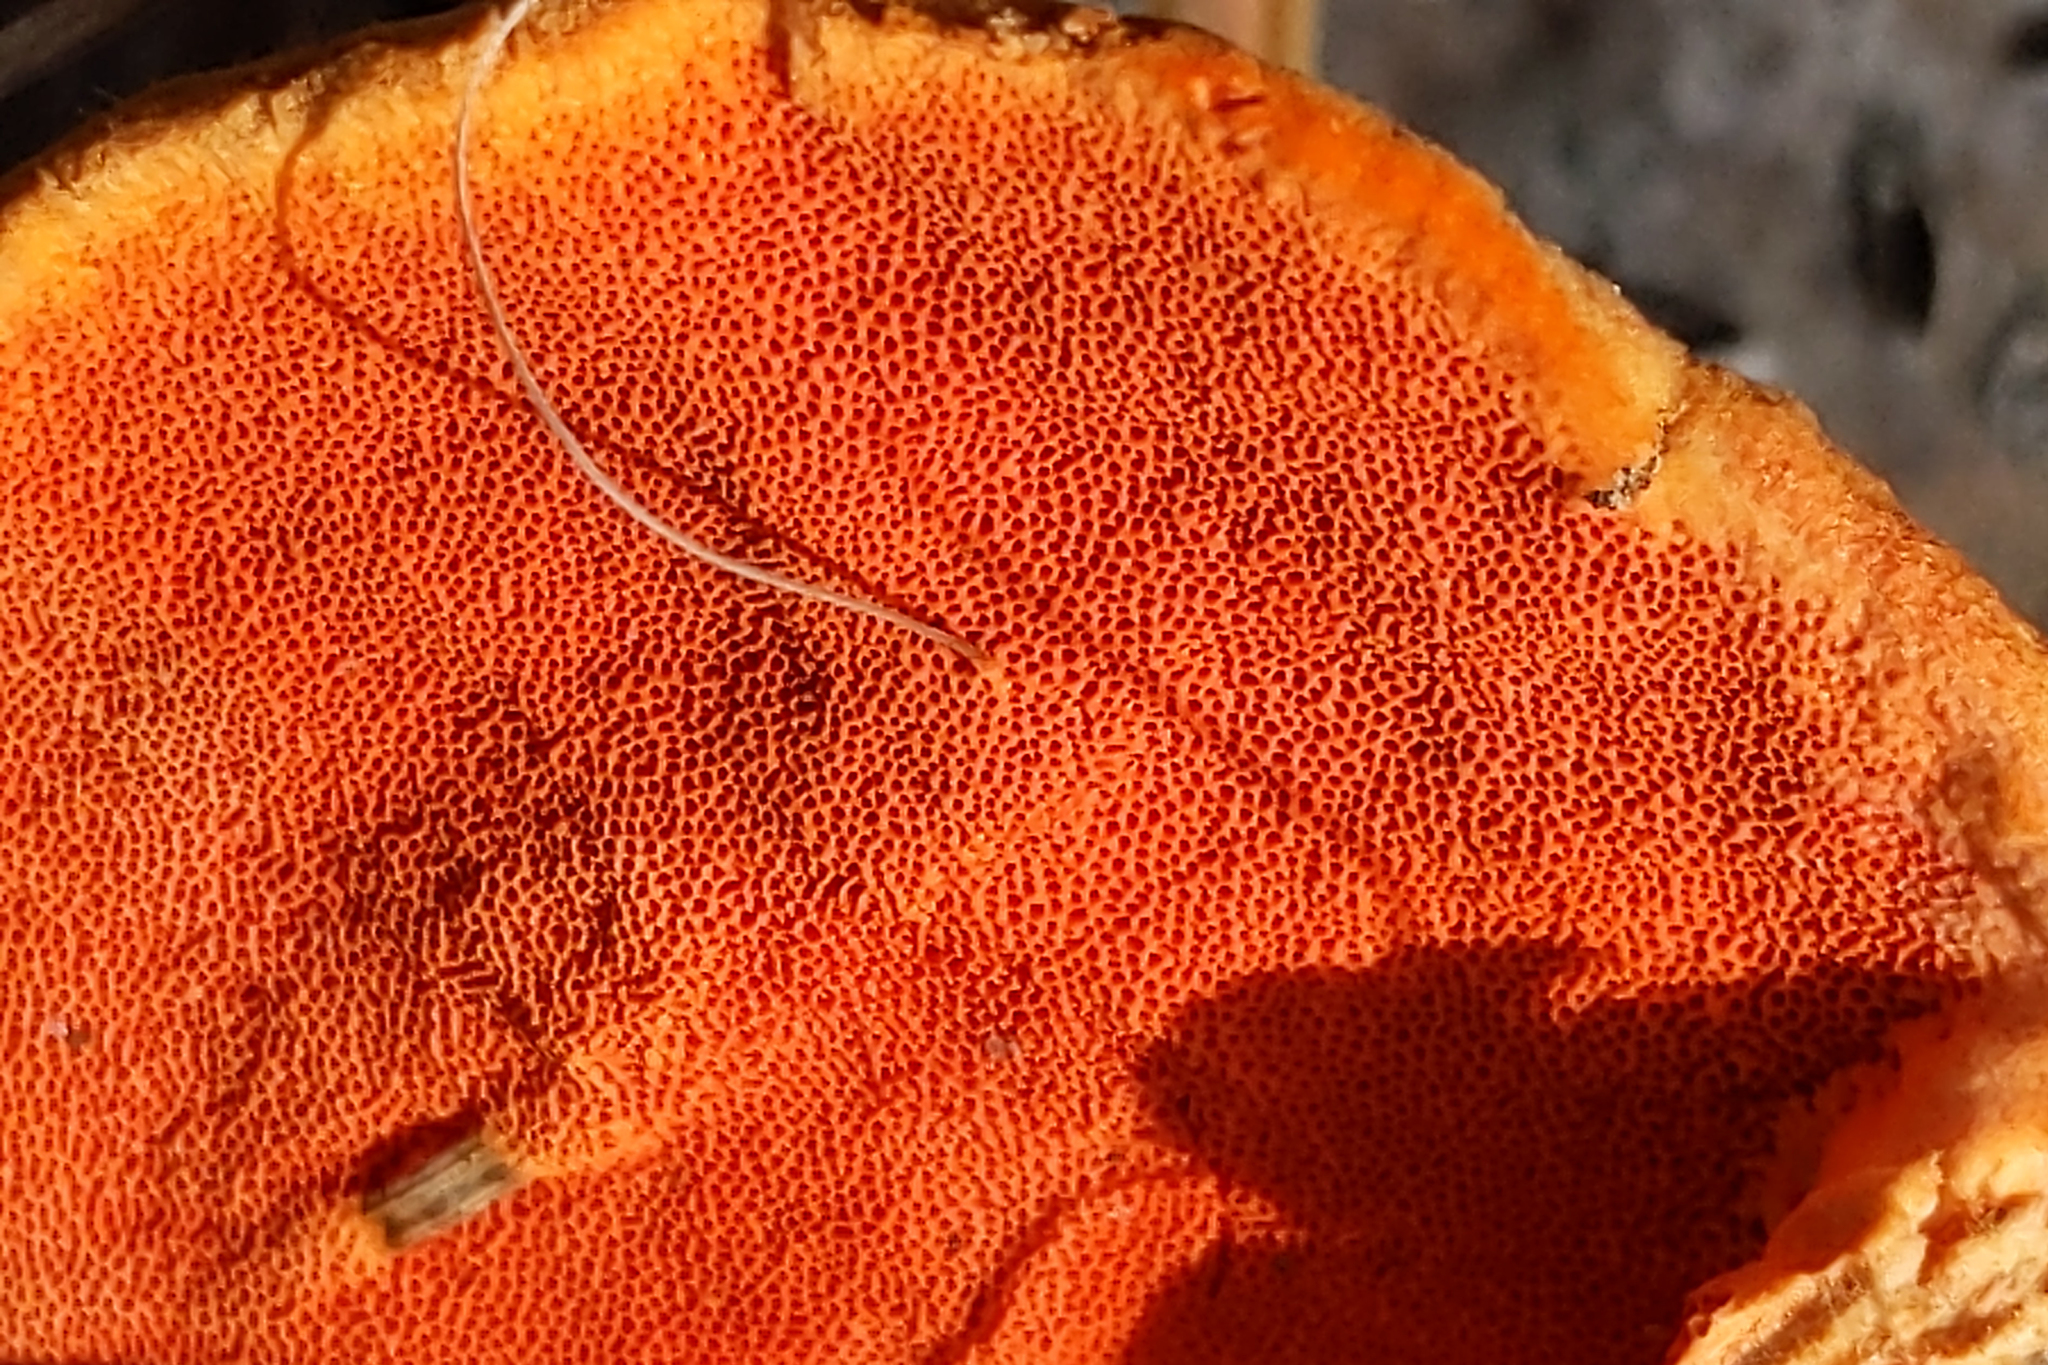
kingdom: Fungi
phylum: Basidiomycota
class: Agaricomycetes
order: Polyporales
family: Polyporaceae
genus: Trametes
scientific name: Trametes cinnabarina
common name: Northern cinnabar polypore
